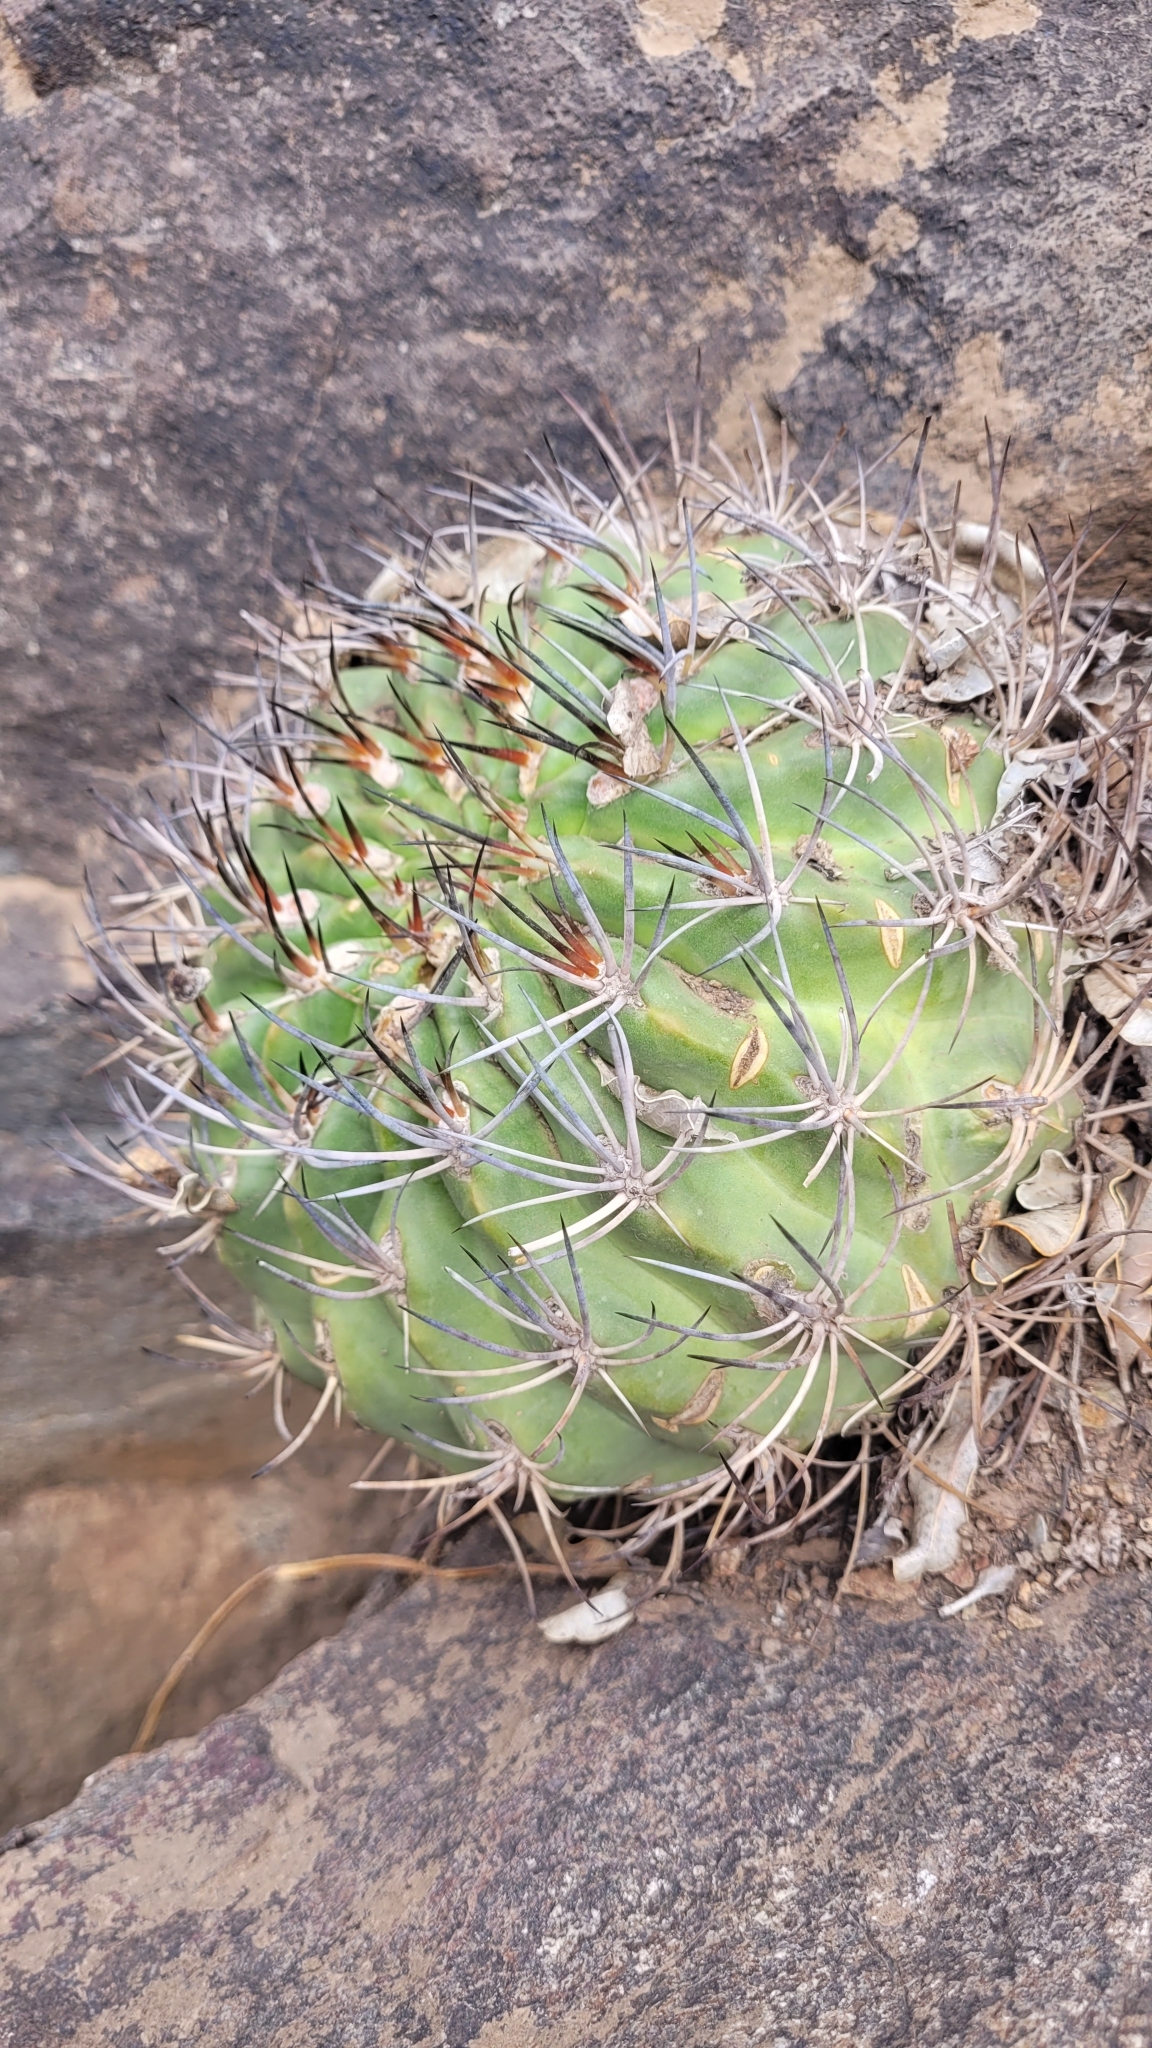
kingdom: Plantae
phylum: Tracheophyta
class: Magnoliopsida
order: Caryophyllales
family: Cactaceae
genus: Eriosyce
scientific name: Eriosyce curvispina
